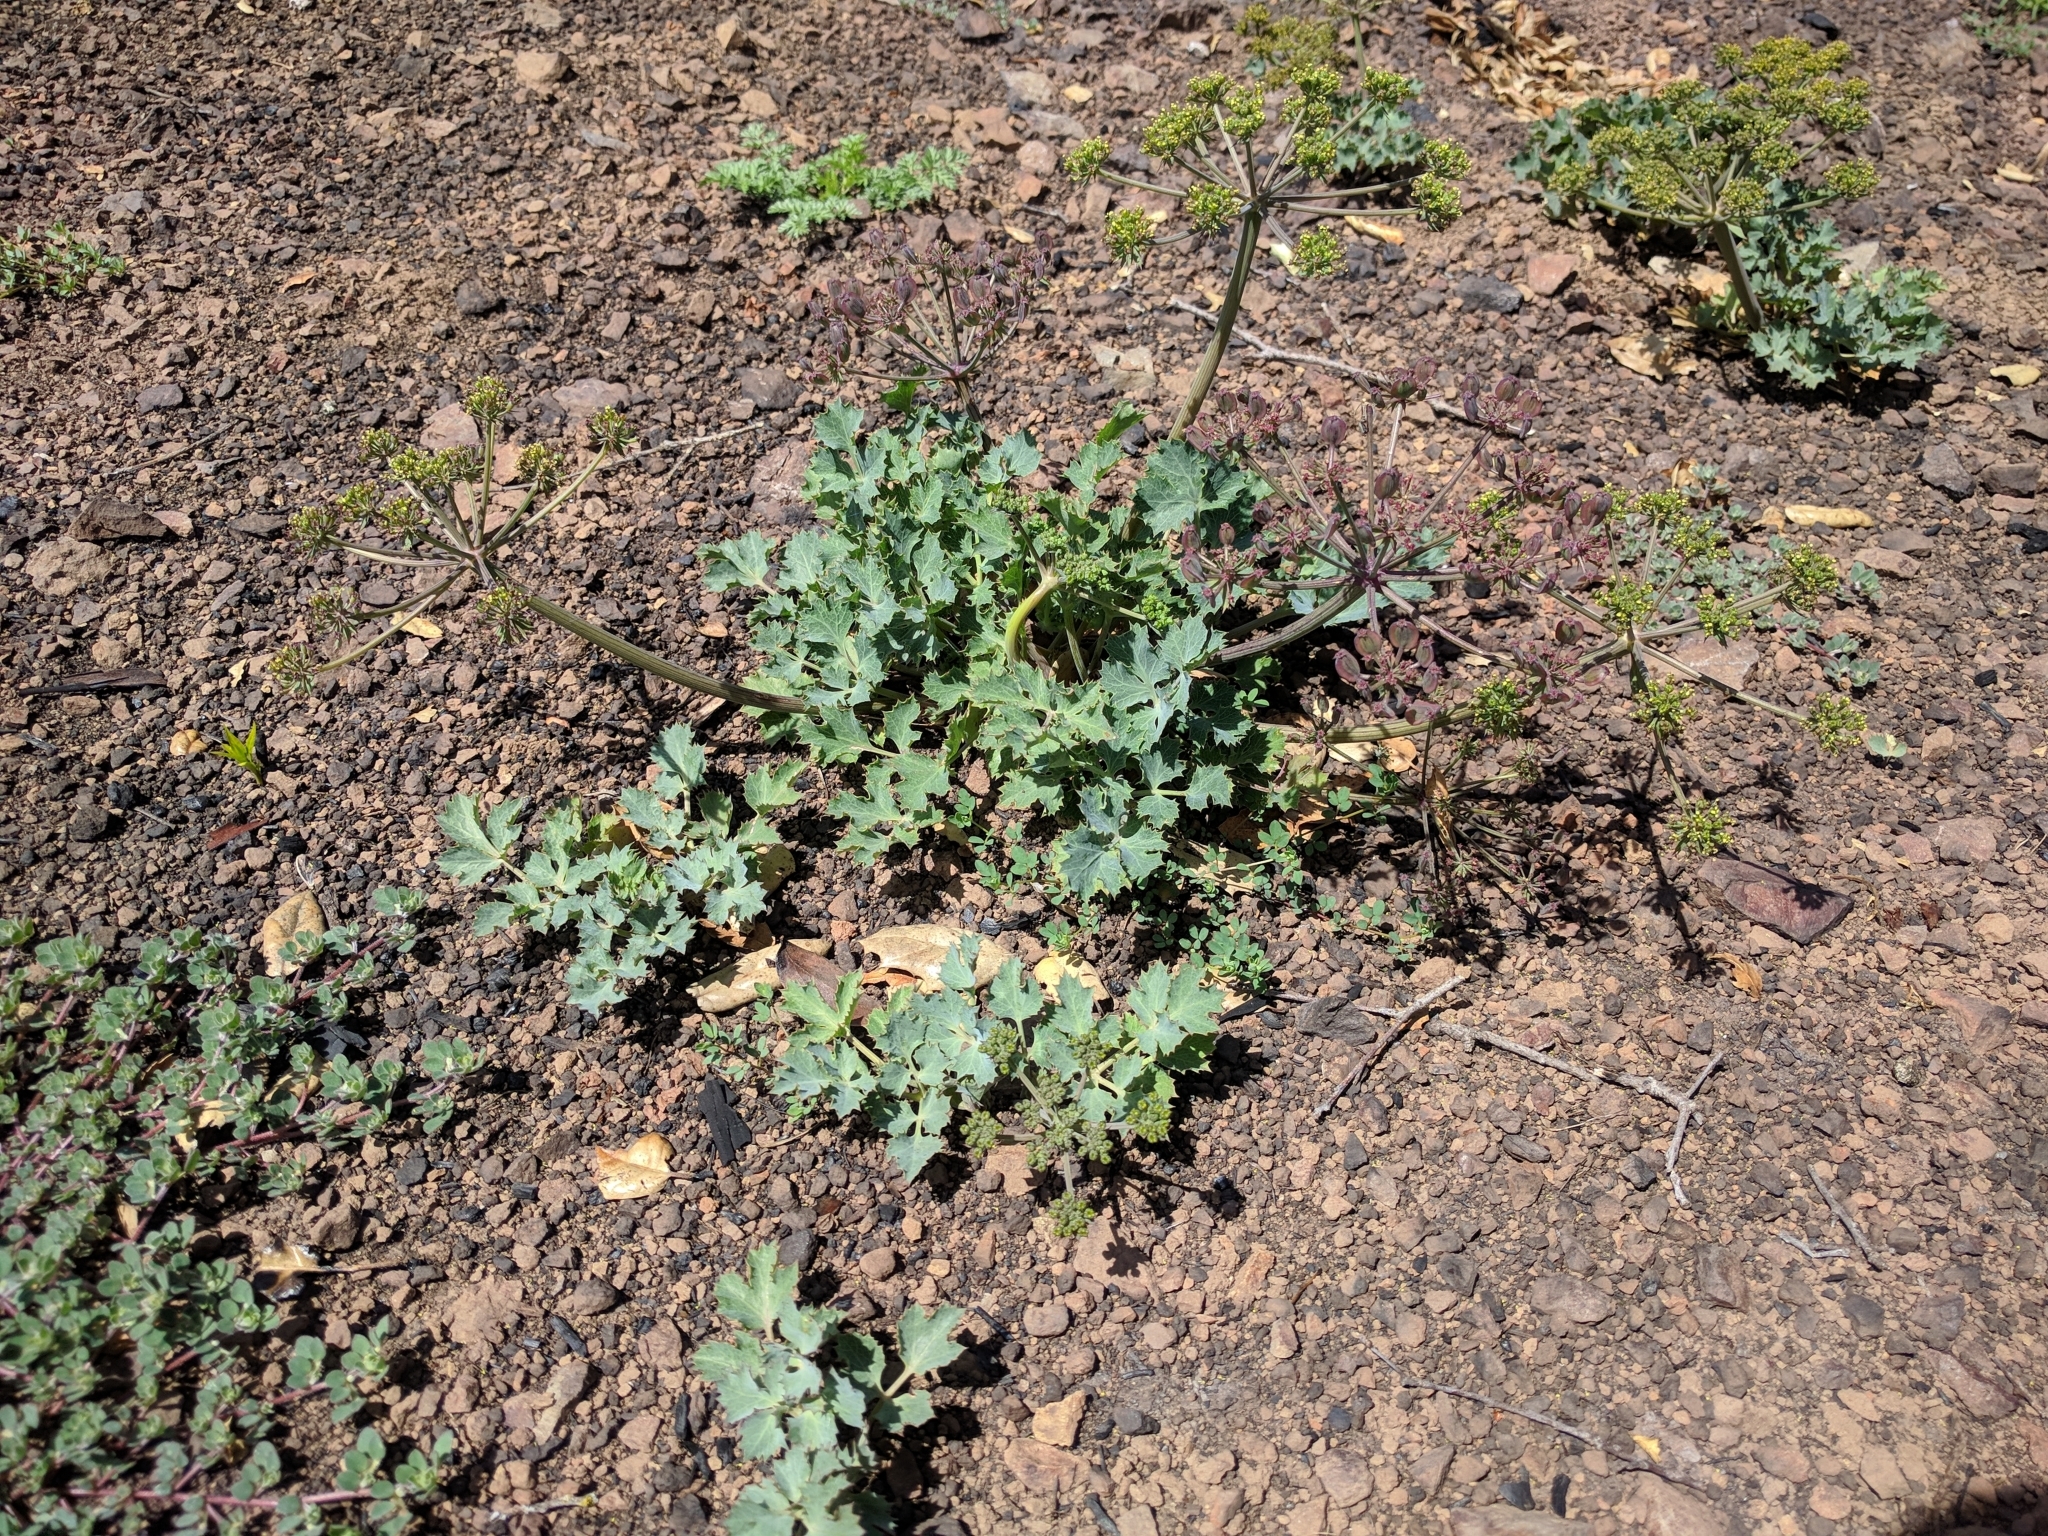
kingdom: Plantae
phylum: Tracheophyta
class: Magnoliopsida
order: Apiales
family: Apiaceae
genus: Lomatium
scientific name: Lomatium repostum
